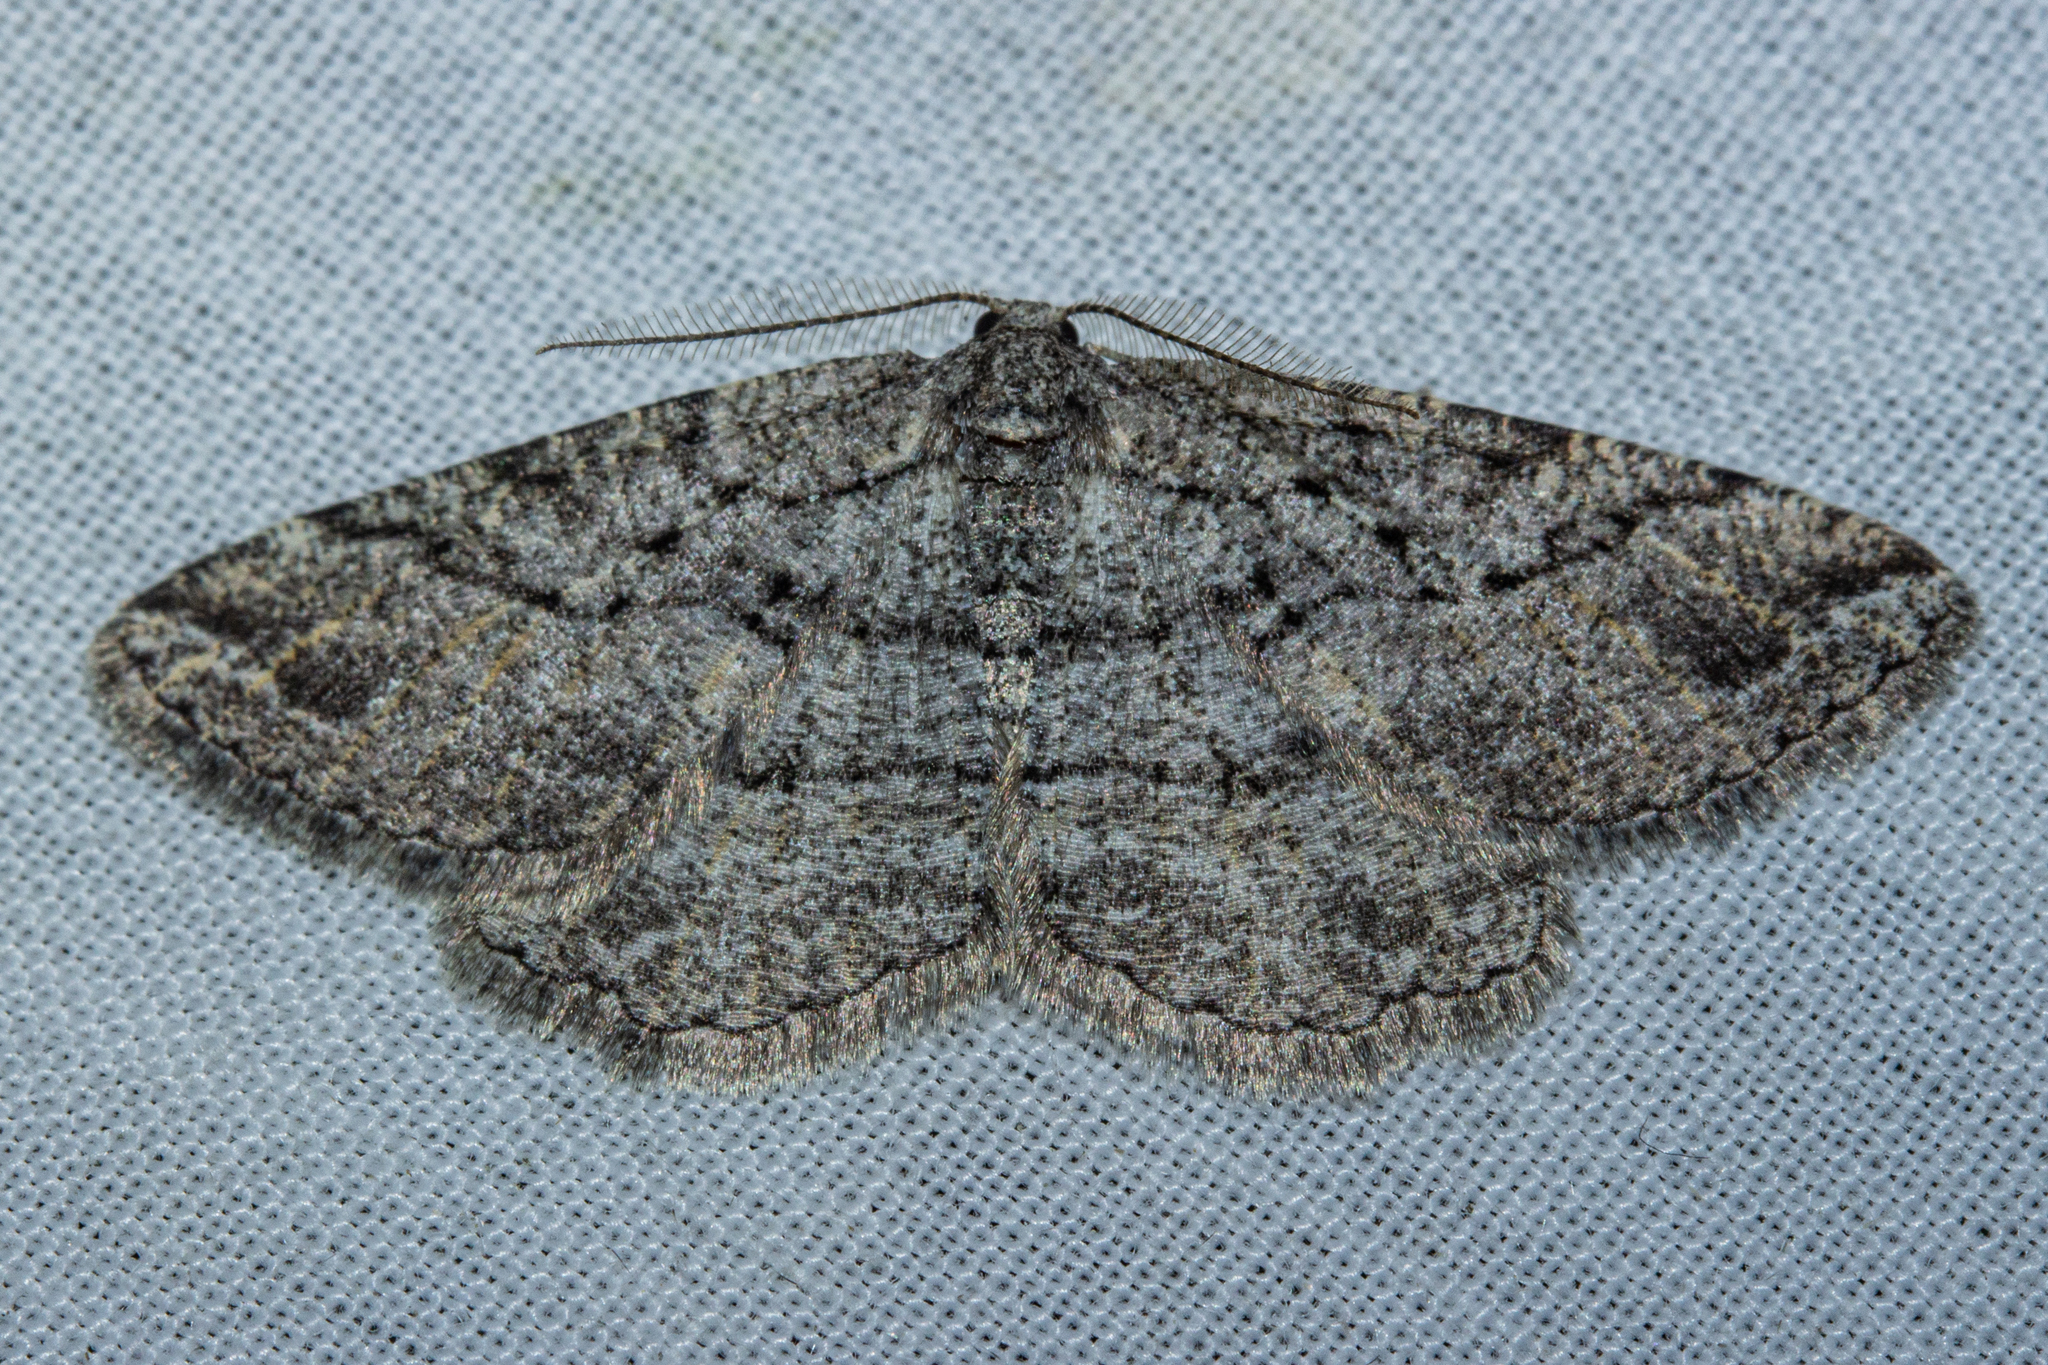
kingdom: Animalia
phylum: Arthropoda
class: Insecta
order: Lepidoptera
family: Geometridae
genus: Zermizinga
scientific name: Zermizinga indocilisaria
